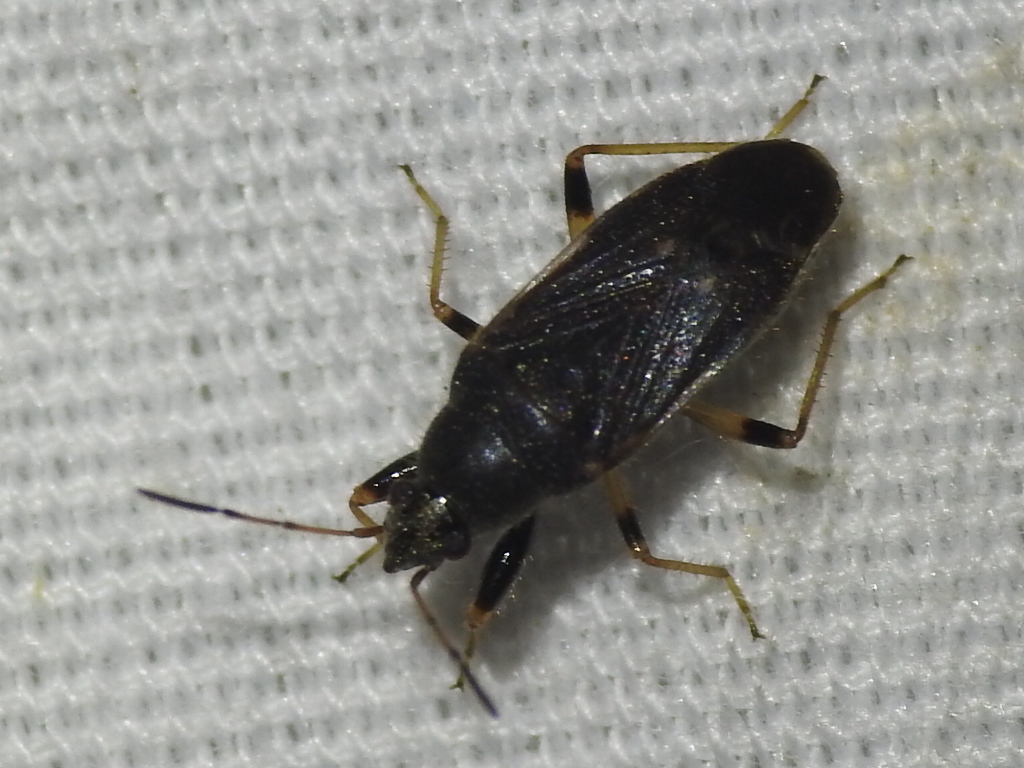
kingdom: Animalia
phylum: Arthropoda
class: Insecta
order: Hemiptera
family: Rhyparochromidae
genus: Perigenes
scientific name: Perigenes similis
